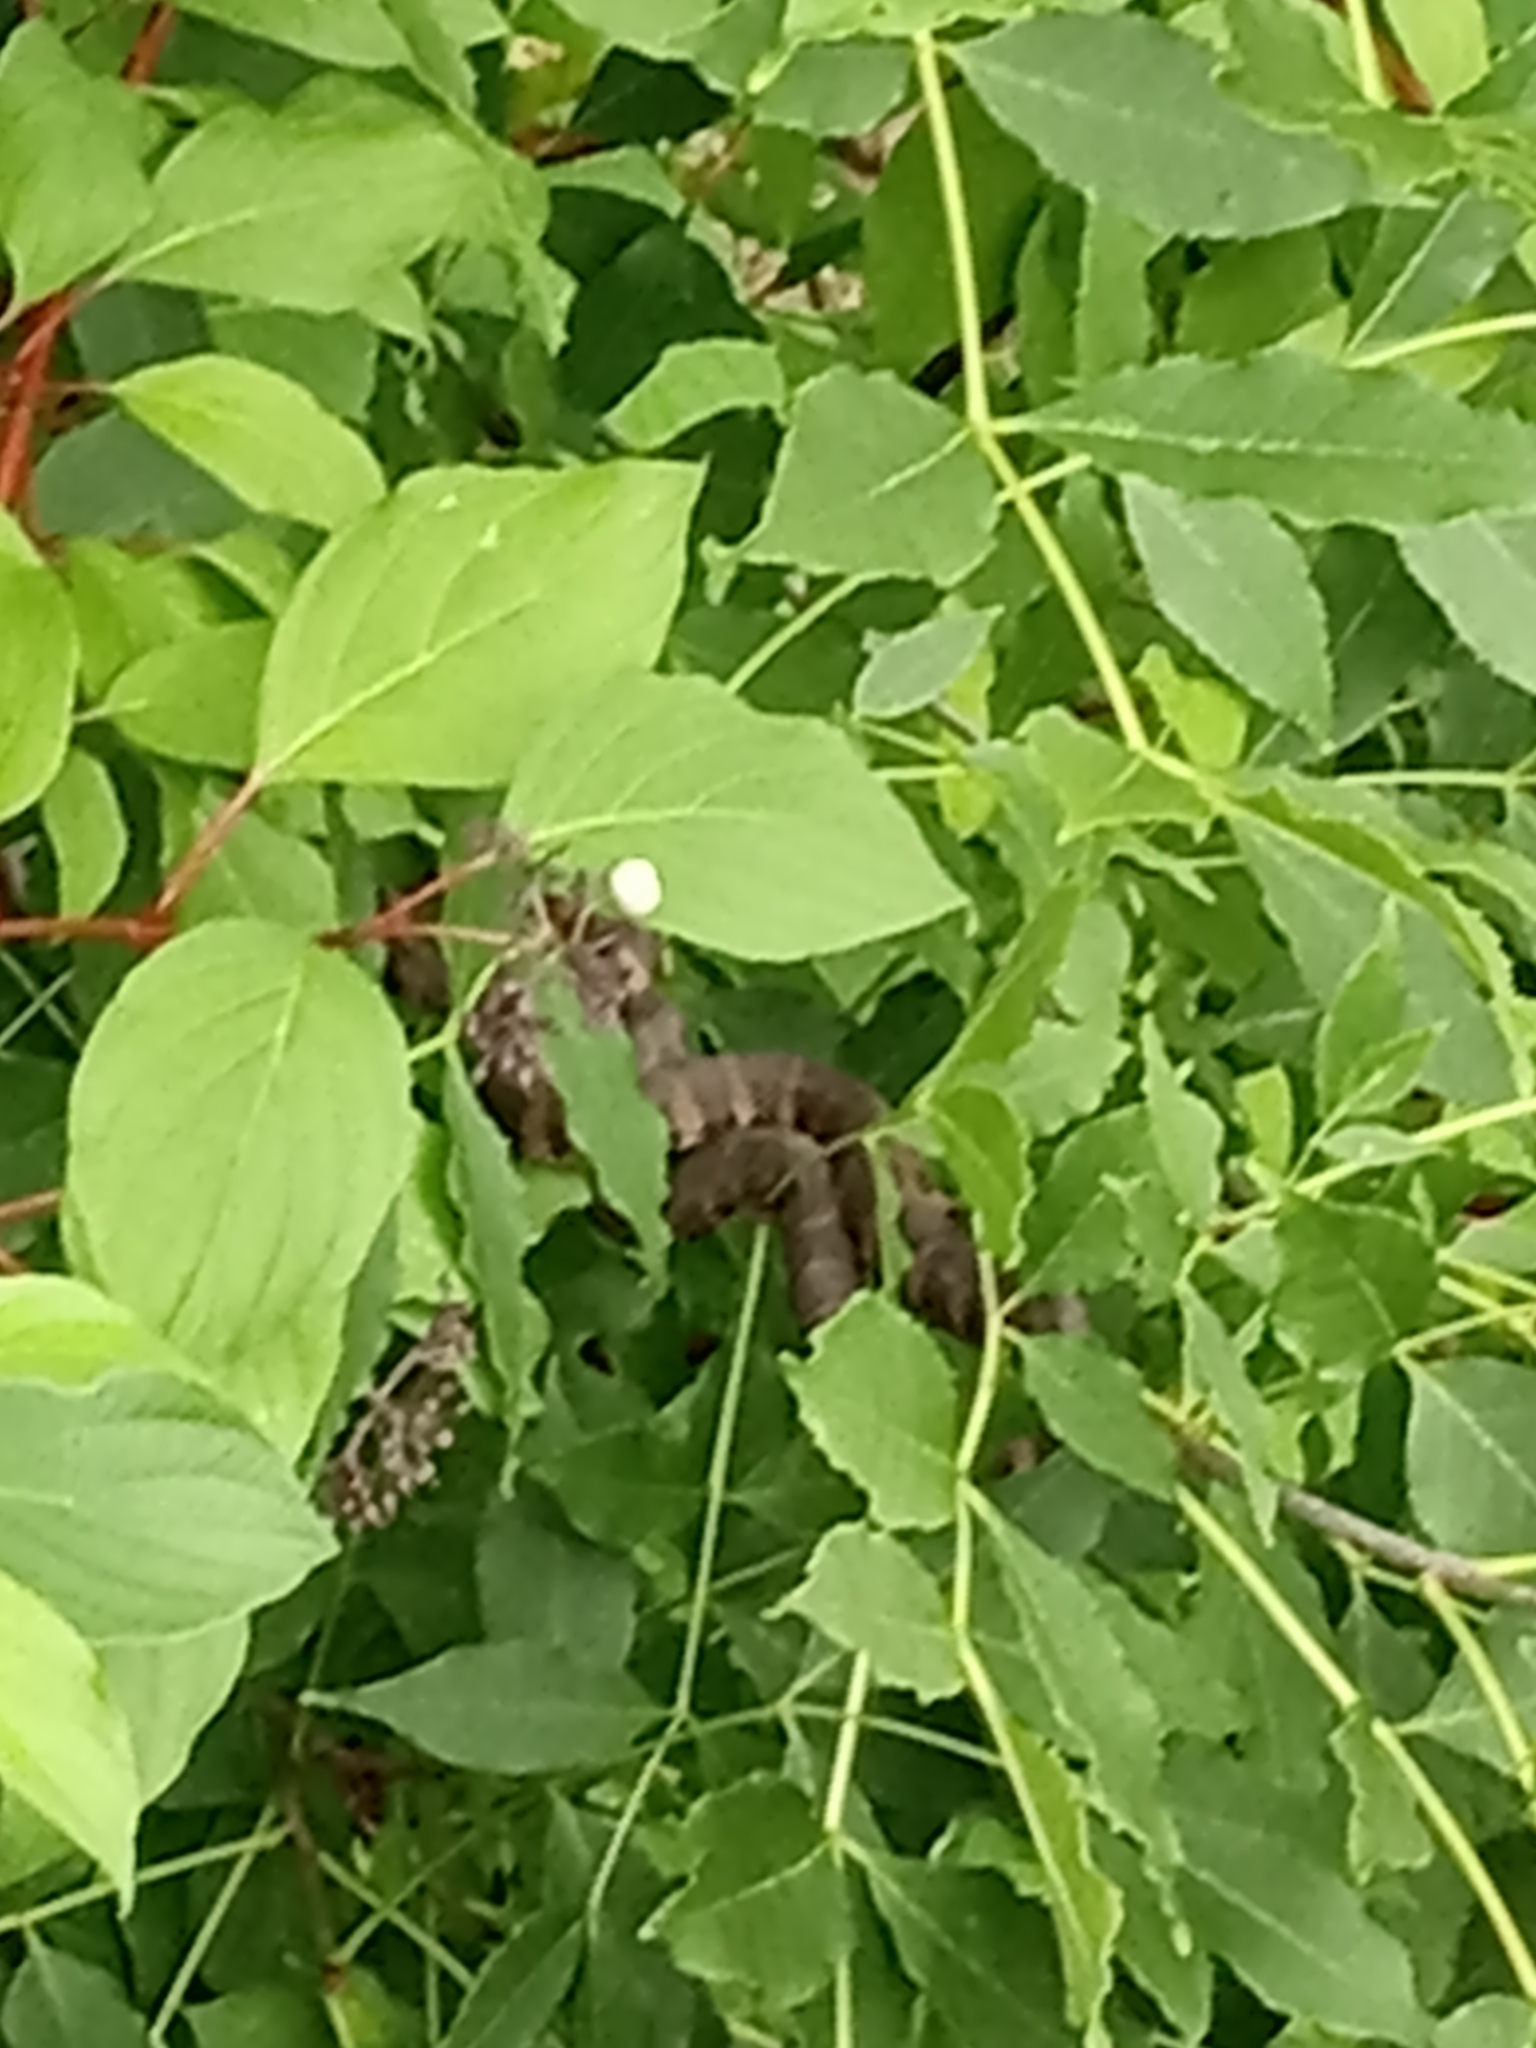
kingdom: Animalia
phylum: Chordata
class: Squamata
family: Colubridae
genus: Nerodia
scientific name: Nerodia sipedon
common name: Northern water snake
